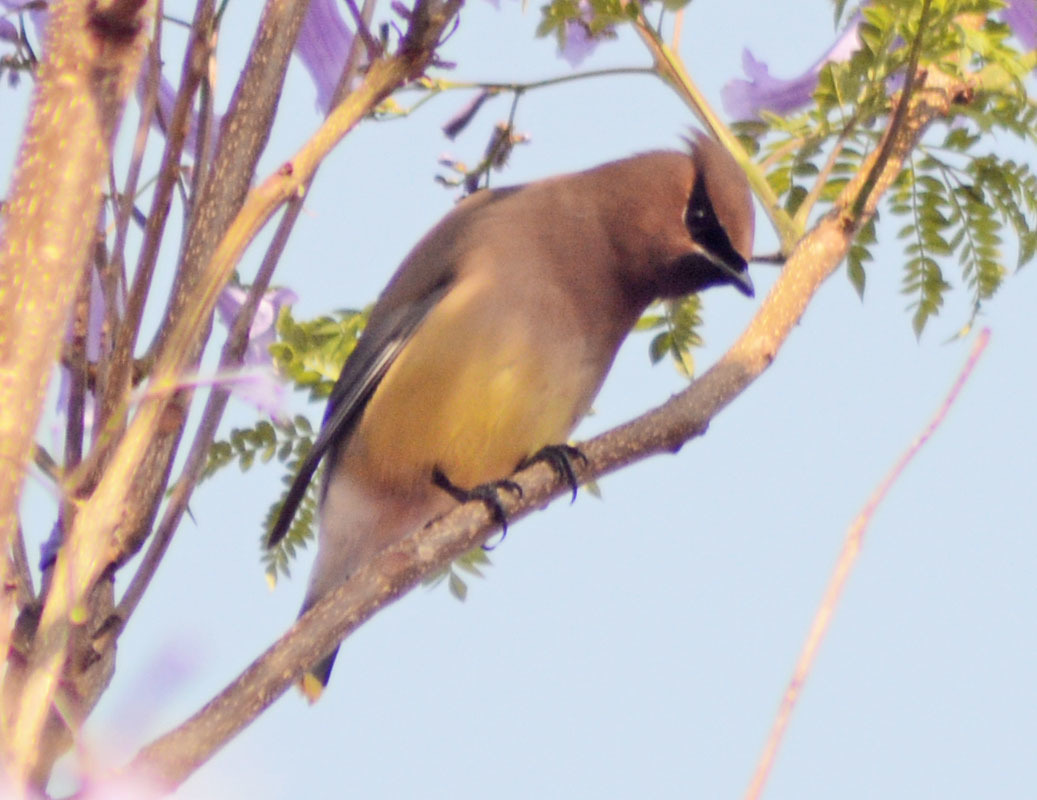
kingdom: Animalia
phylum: Chordata
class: Aves
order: Passeriformes
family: Bombycillidae
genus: Bombycilla
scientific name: Bombycilla cedrorum
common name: Cedar waxwing
